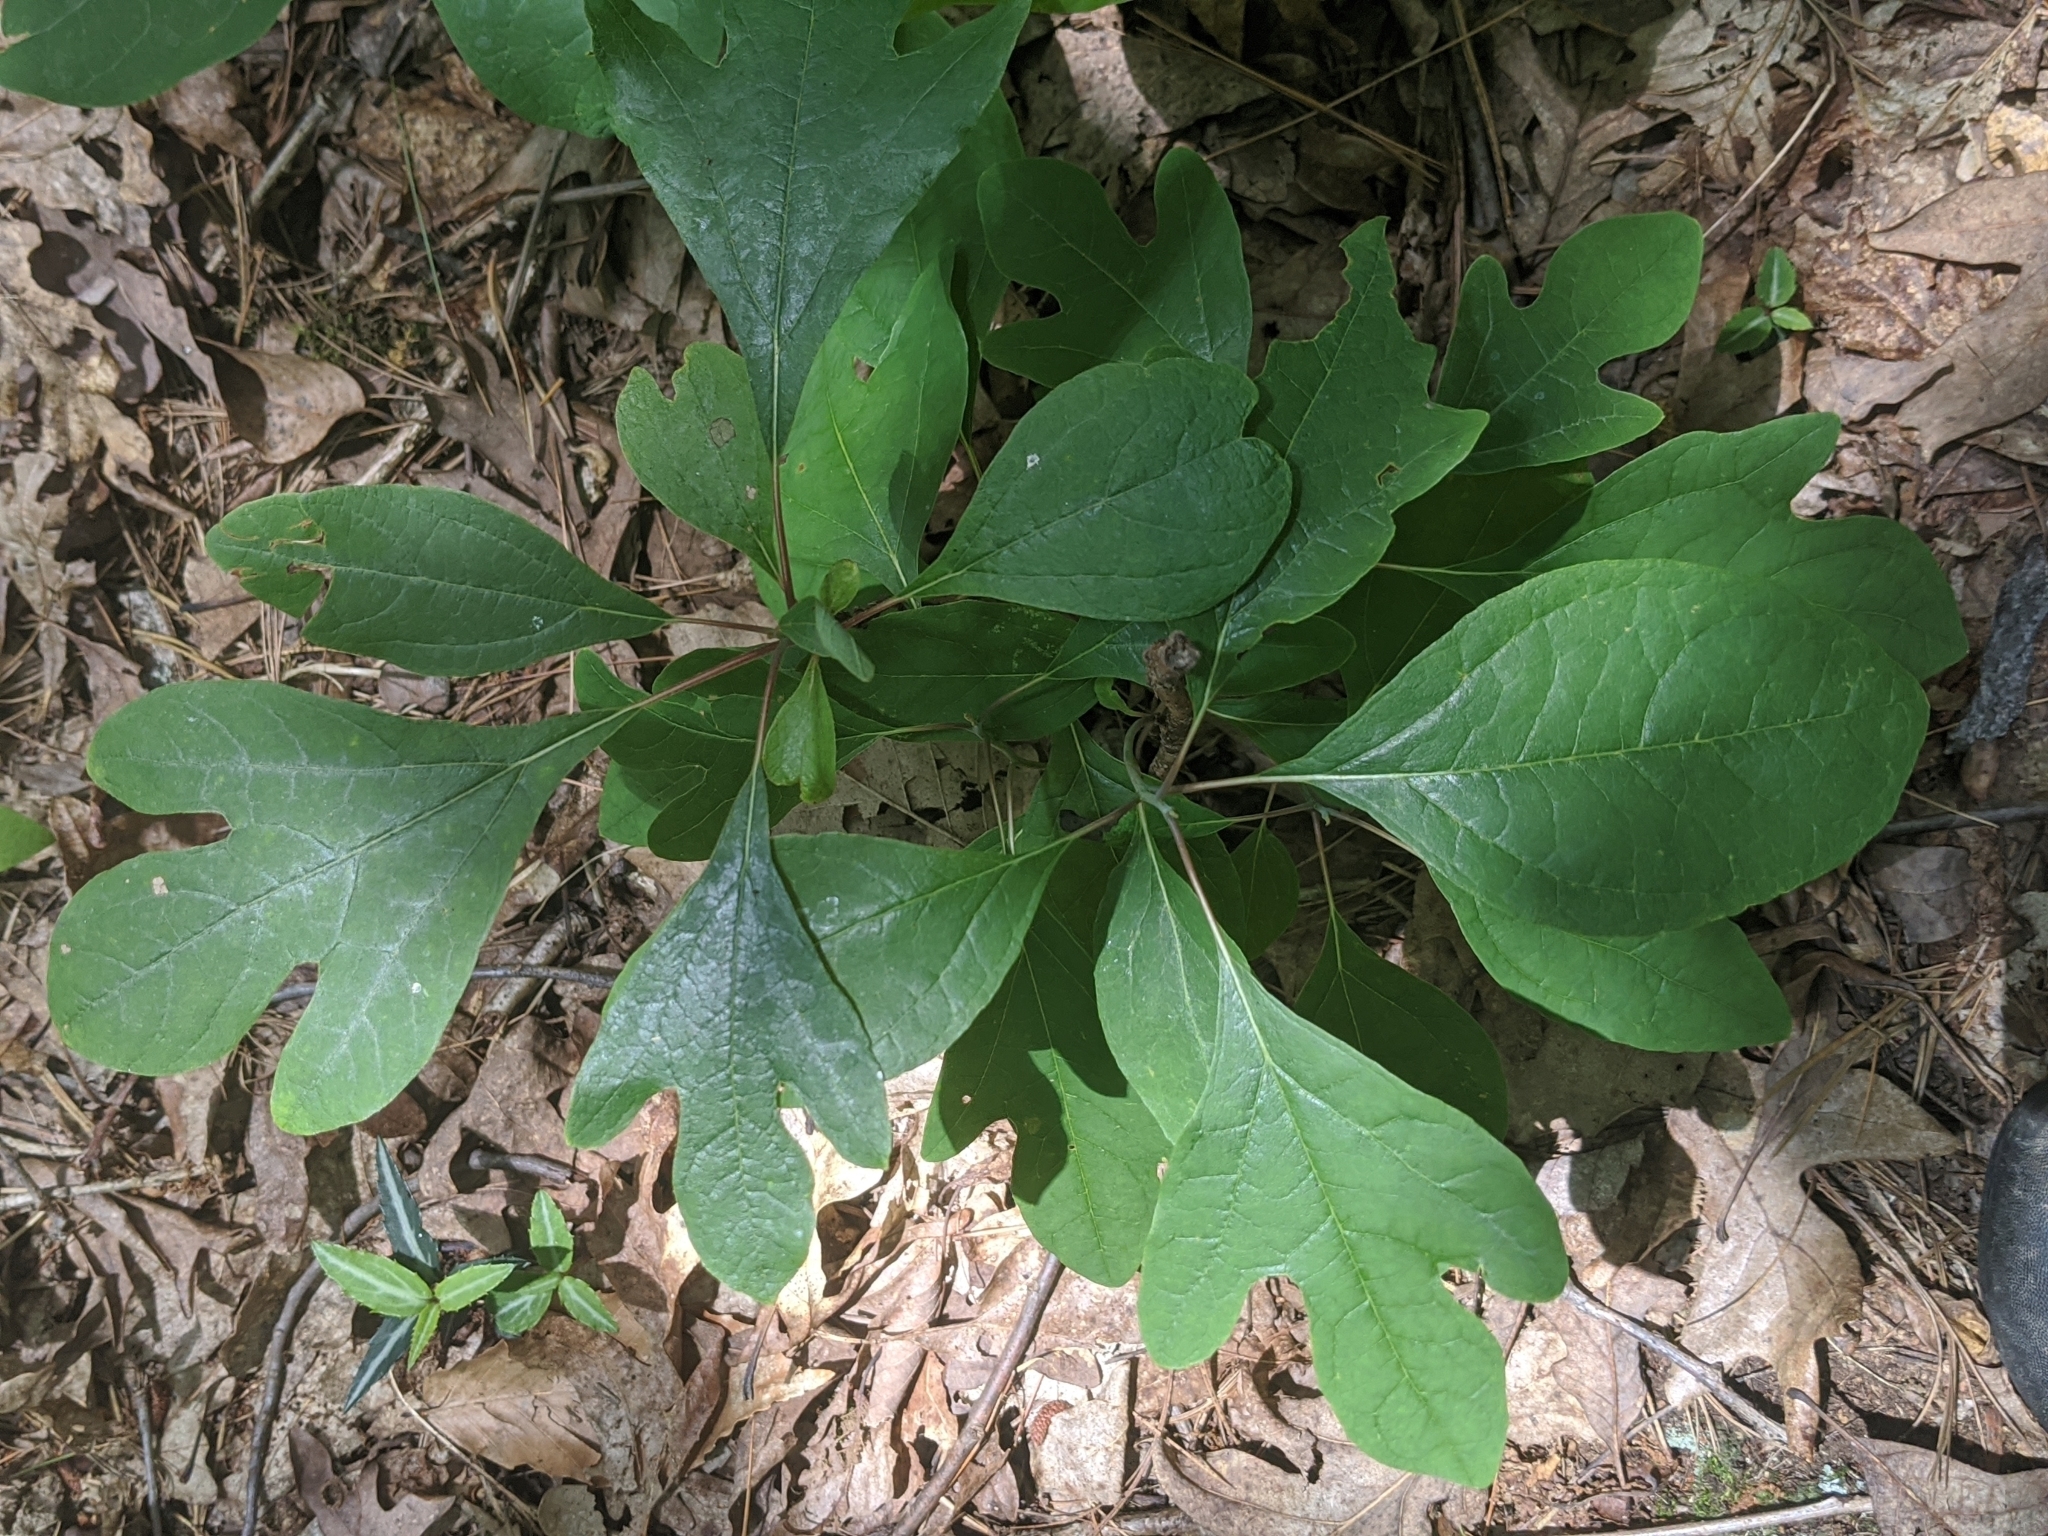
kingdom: Plantae
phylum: Tracheophyta
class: Magnoliopsida
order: Laurales
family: Lauraceae
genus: Sassafras
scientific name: Sassafras albidum
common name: Sassafras
